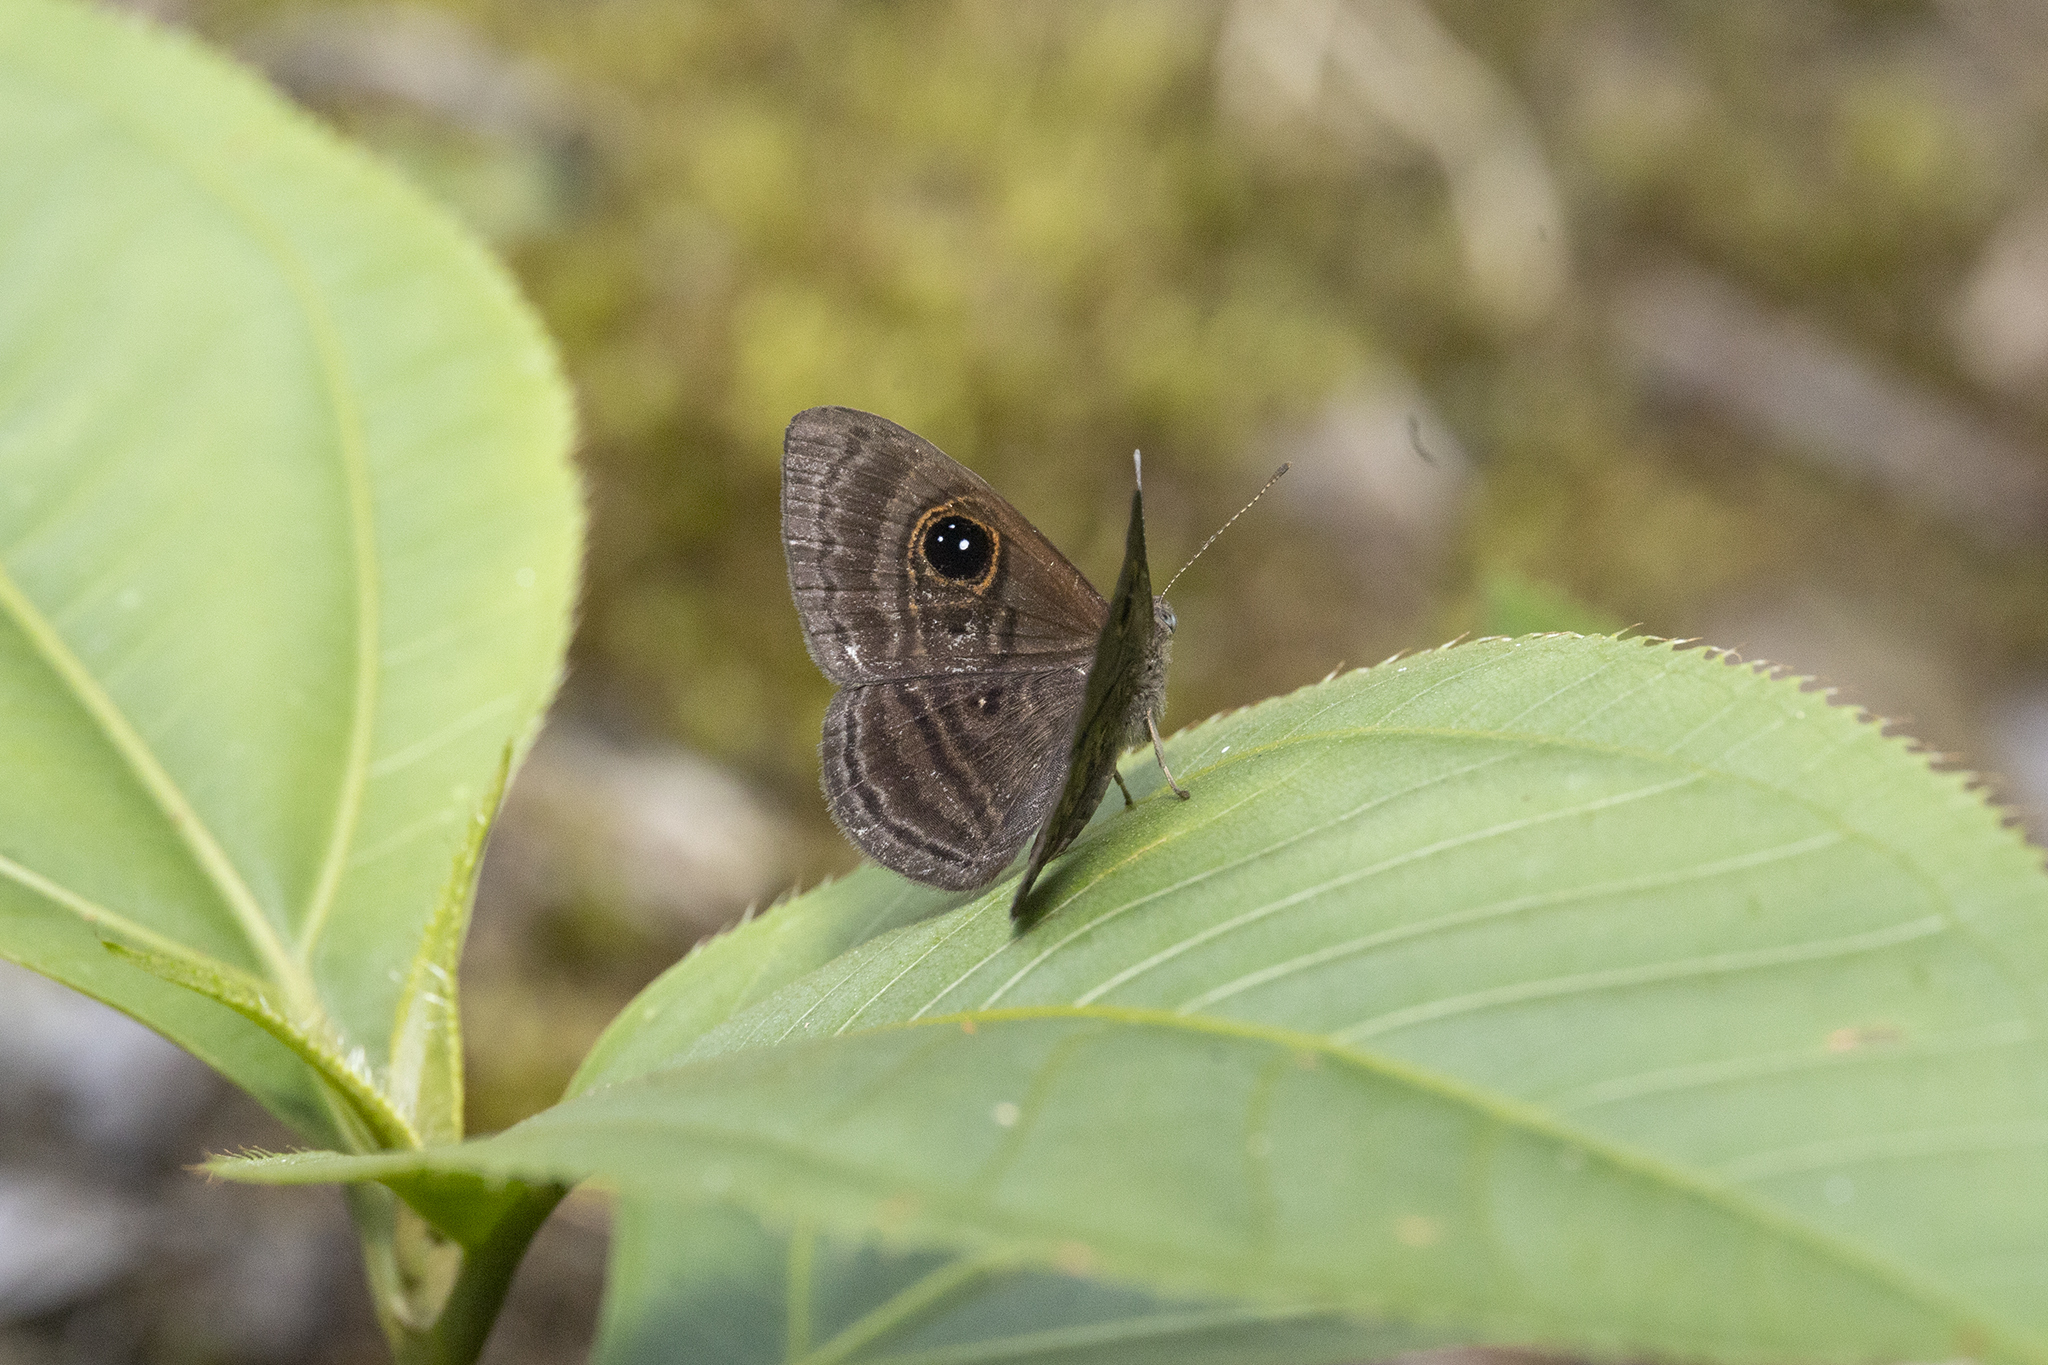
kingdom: Animalia
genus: Mesosemia
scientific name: Mesosemia ibycus
